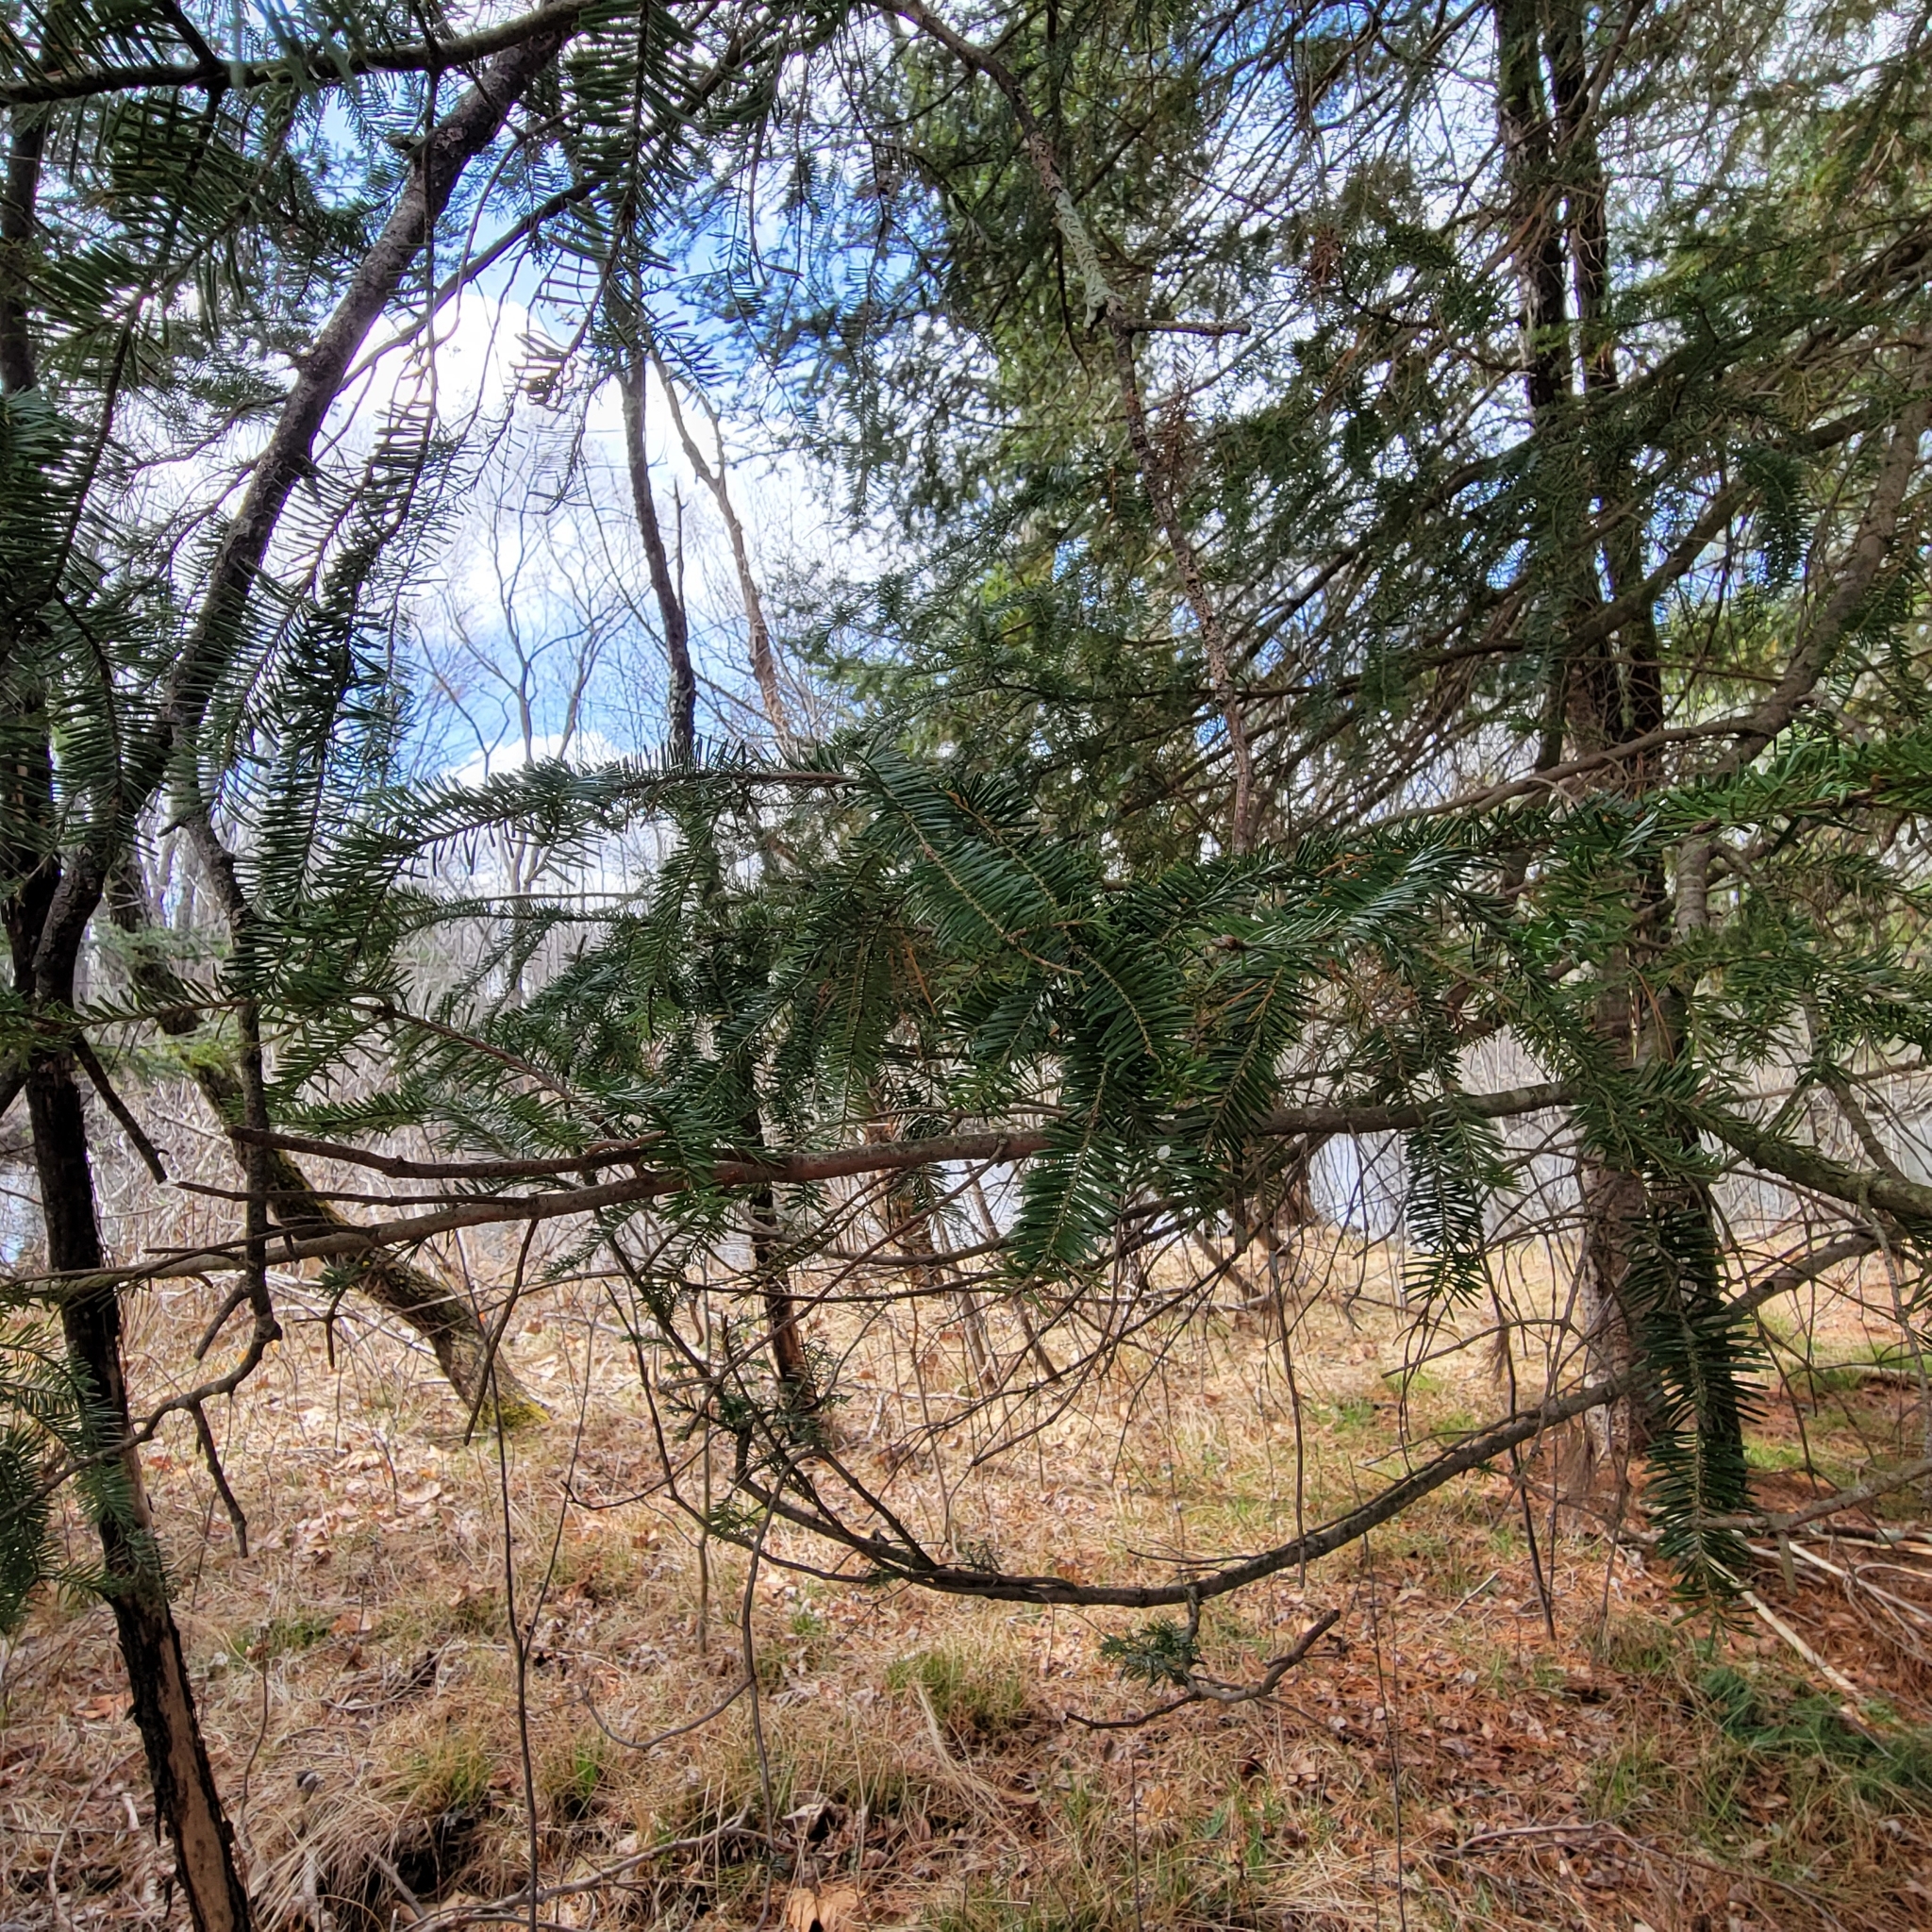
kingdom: Plantae
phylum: Tracheophyta
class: Pinopsida
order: Pinales
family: Pinaceae
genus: Abies
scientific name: Abies balsamea
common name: Balsam fir
